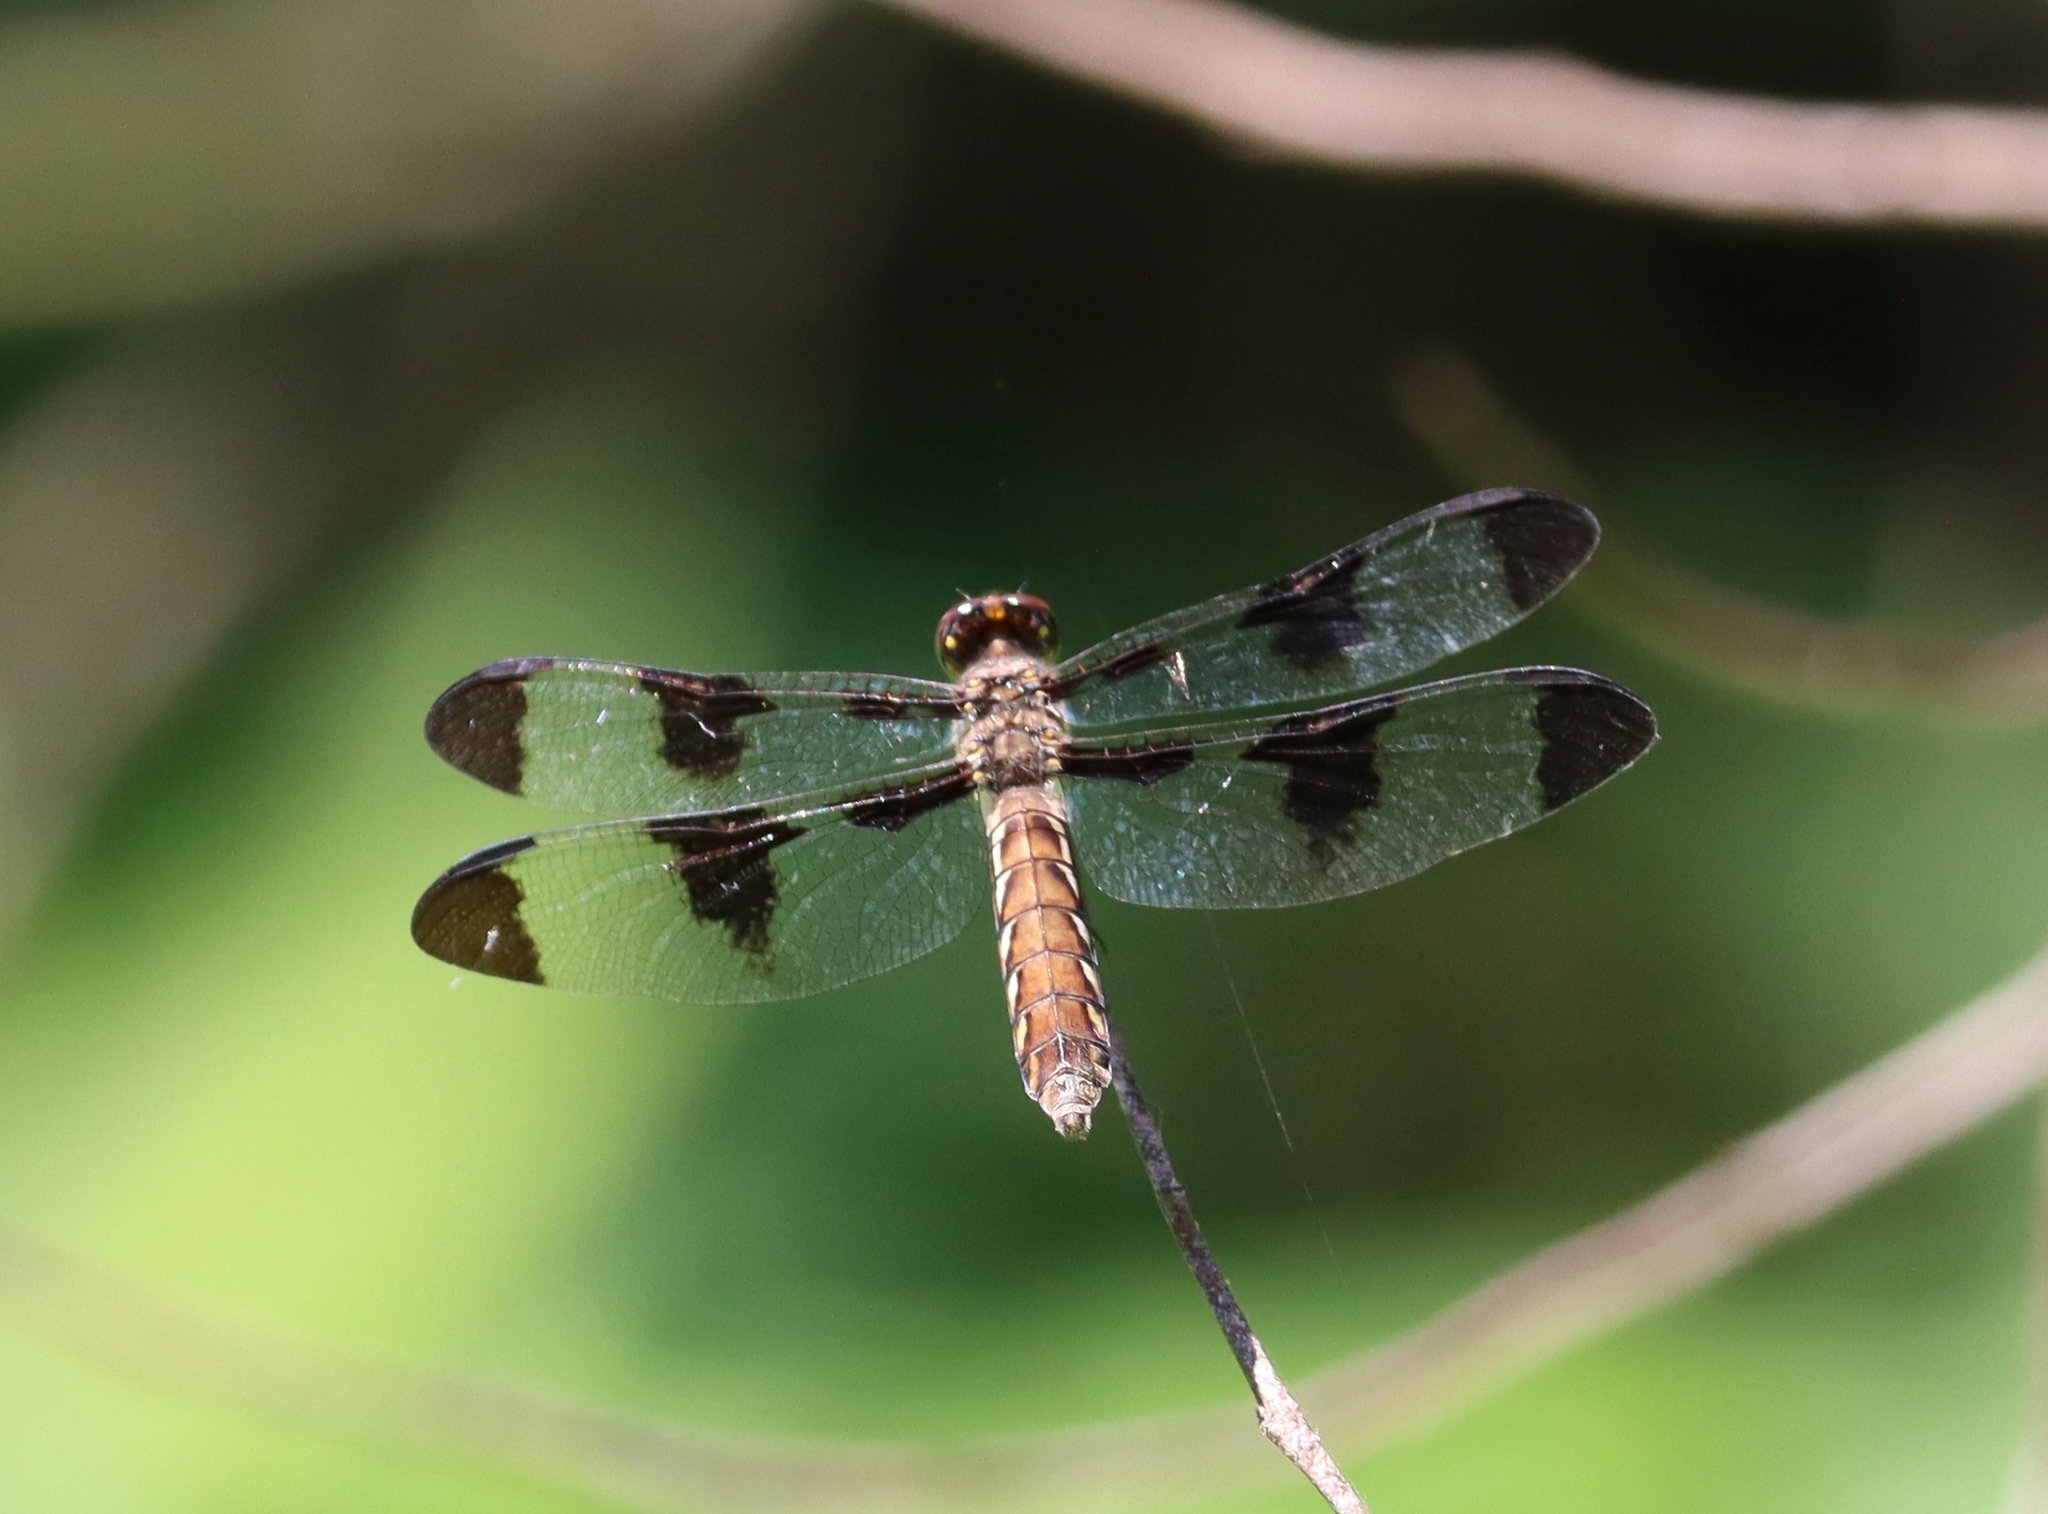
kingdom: Animalia
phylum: Arthropoda
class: Insecta
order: Odonata
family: Libellulidae
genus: Plathemis
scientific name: Plathemis lydia
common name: Common whitetail
